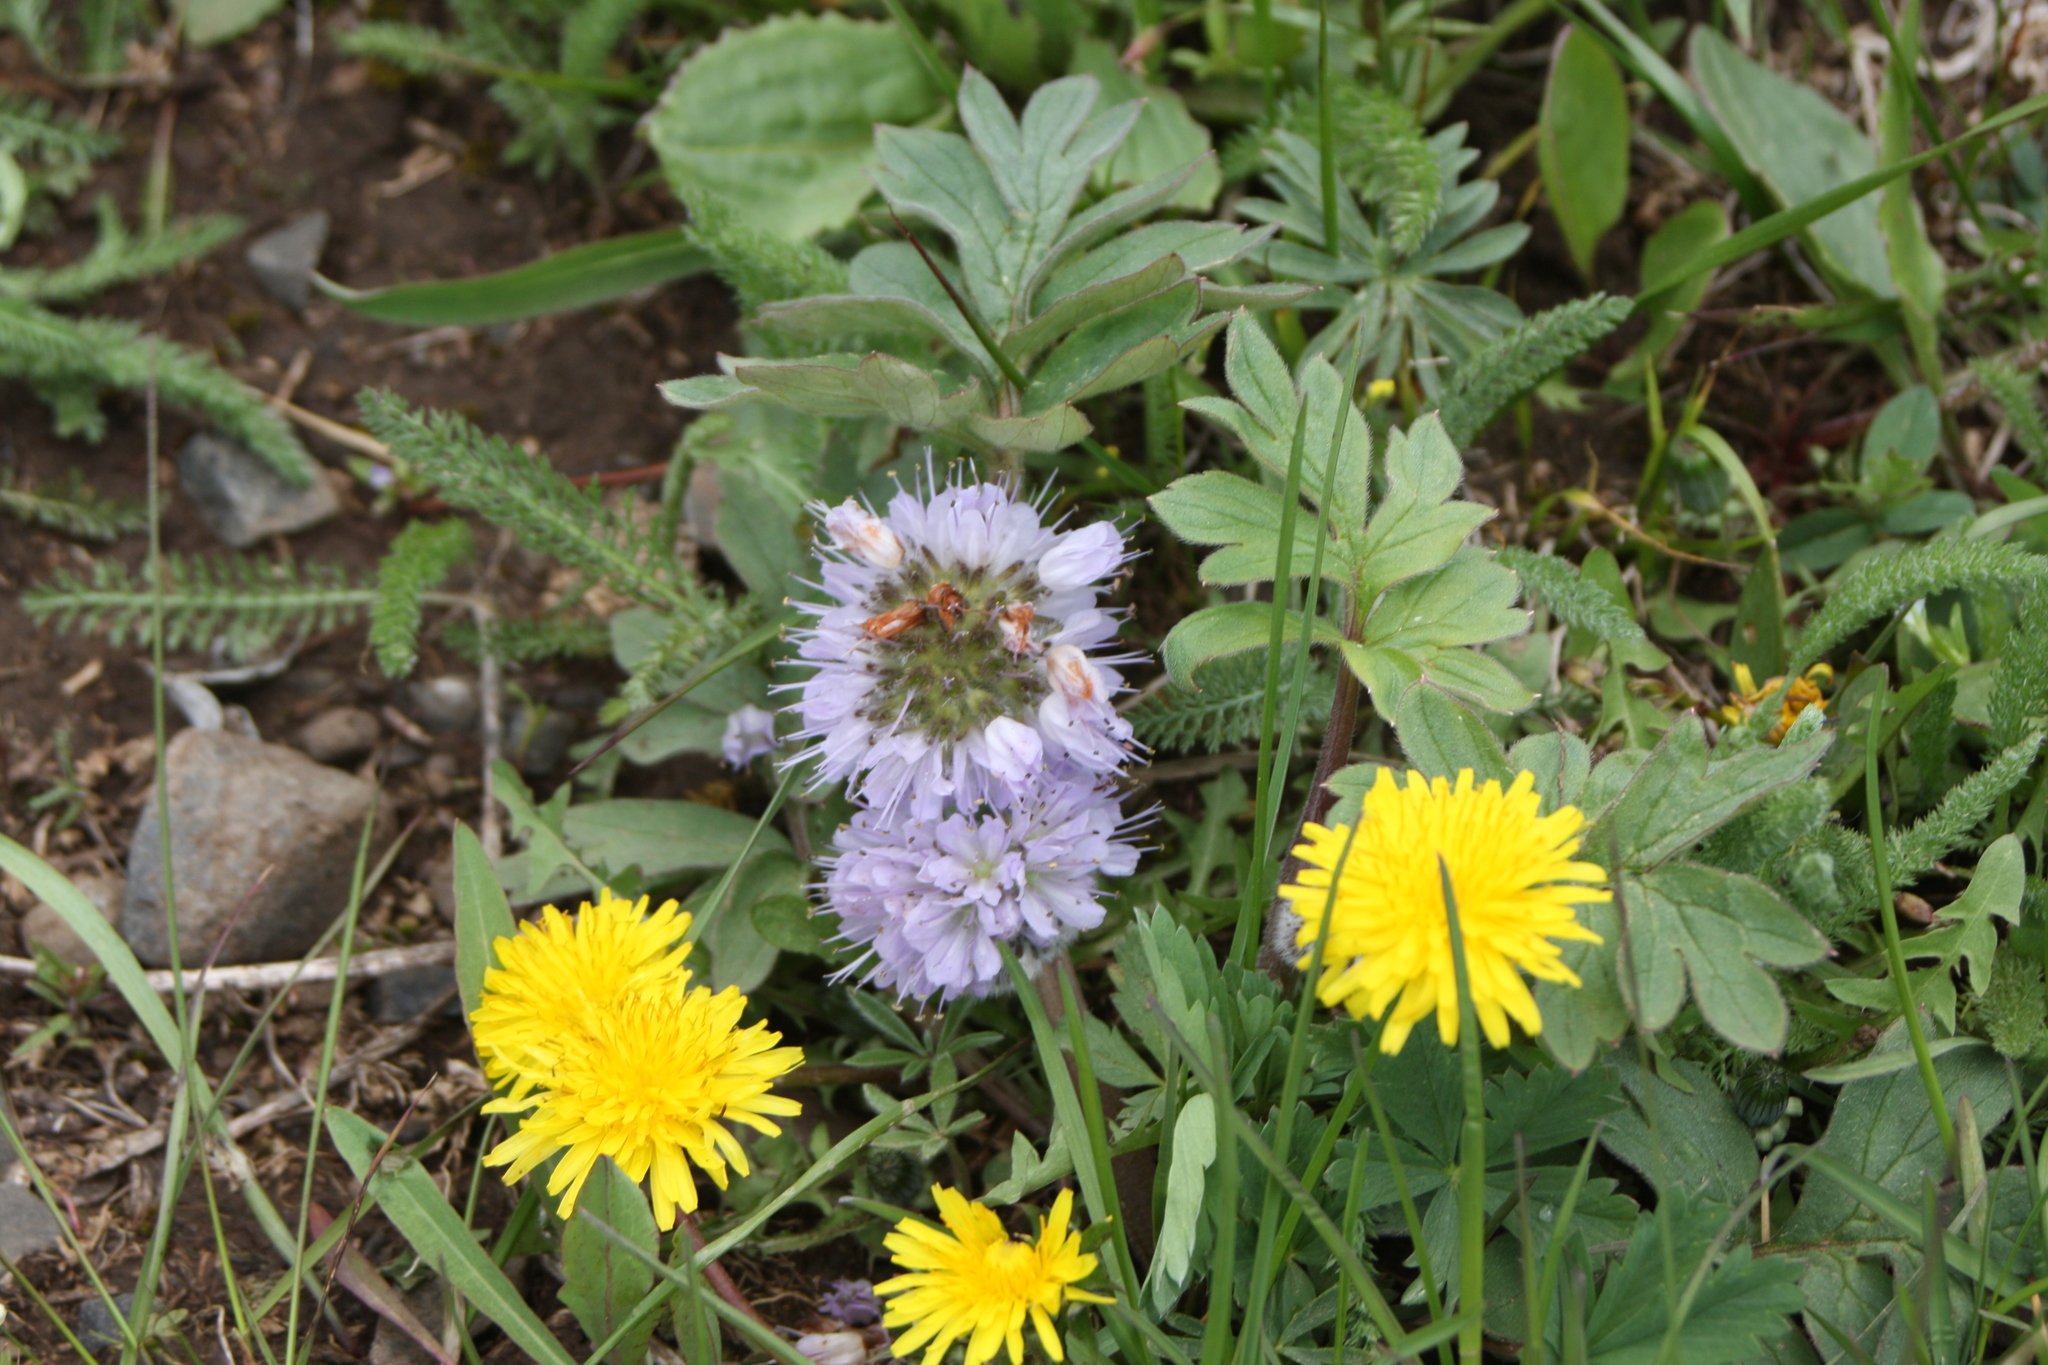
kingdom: Plantae
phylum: Tracheophyta
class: Magnoliopsida
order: Boraginales
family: Hydrophyllaceae
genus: Hydrophyllum
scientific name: Hydrophyllum capitatum
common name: Woollen-breeches
